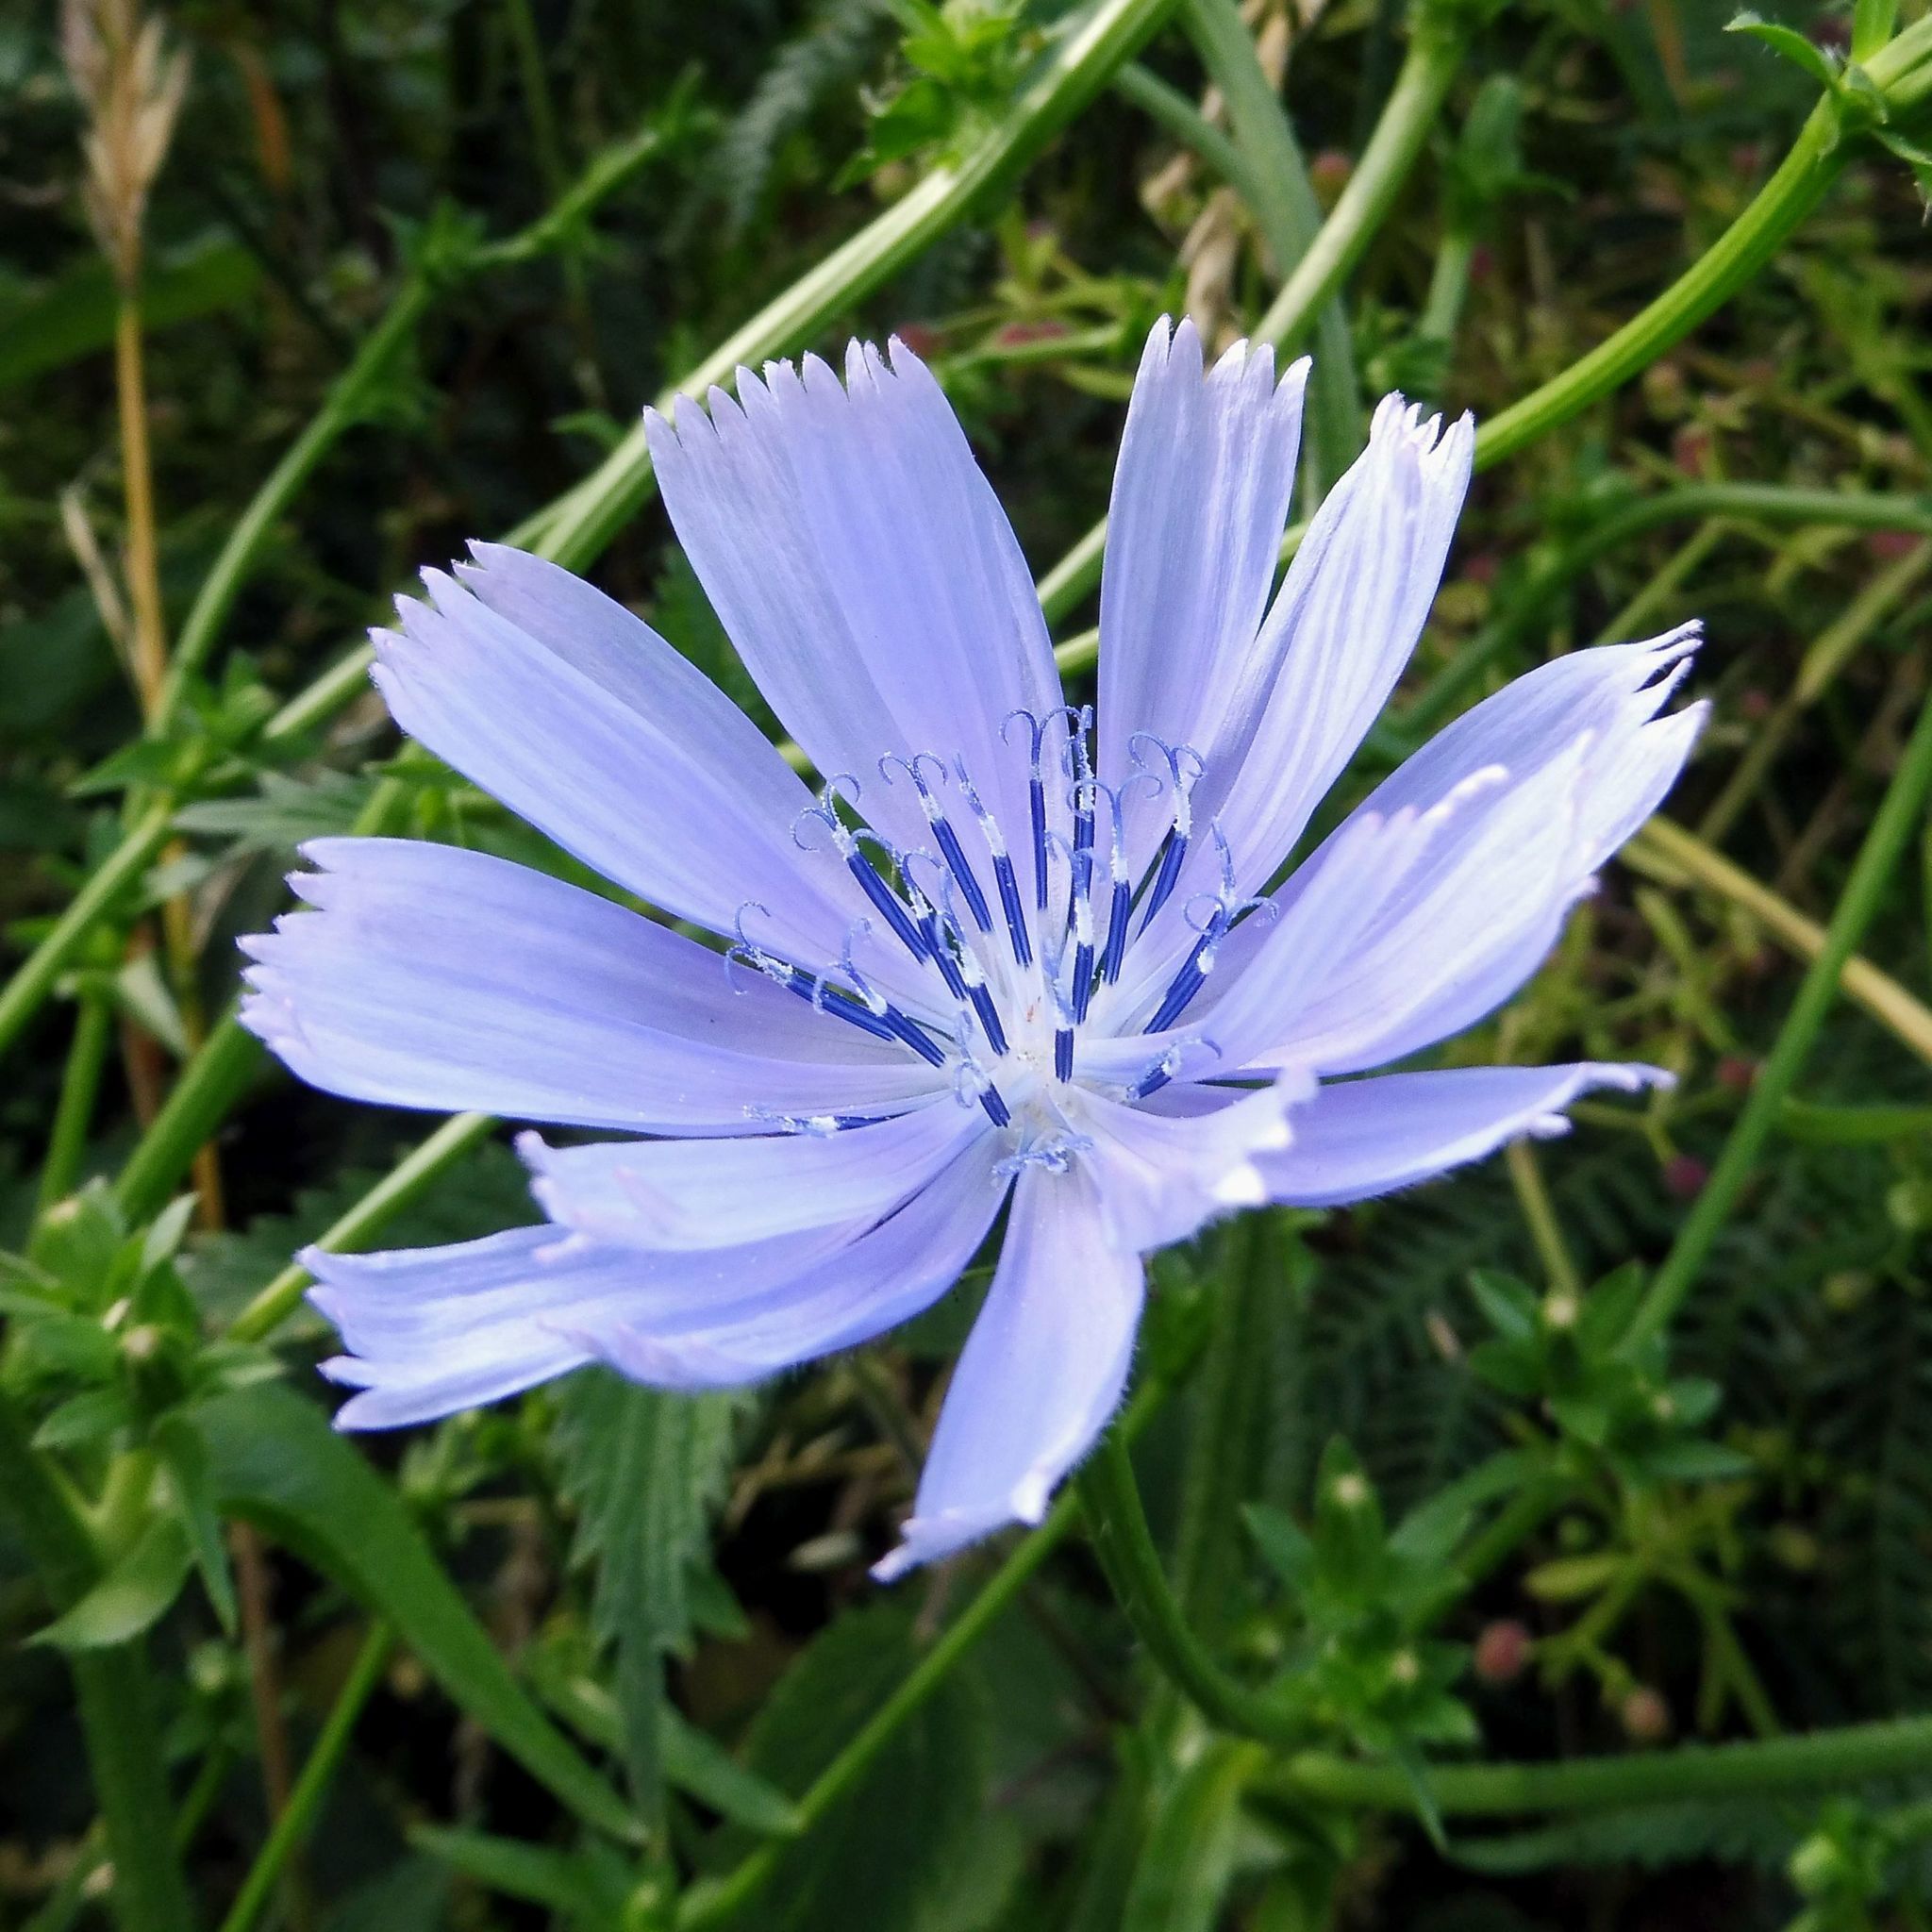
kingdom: Plantae
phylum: Tracheophyta
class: Magnoliopsida
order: Asterales
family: Asteraceae
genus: Cichorium
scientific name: Cichorium intybus
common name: Chicory
